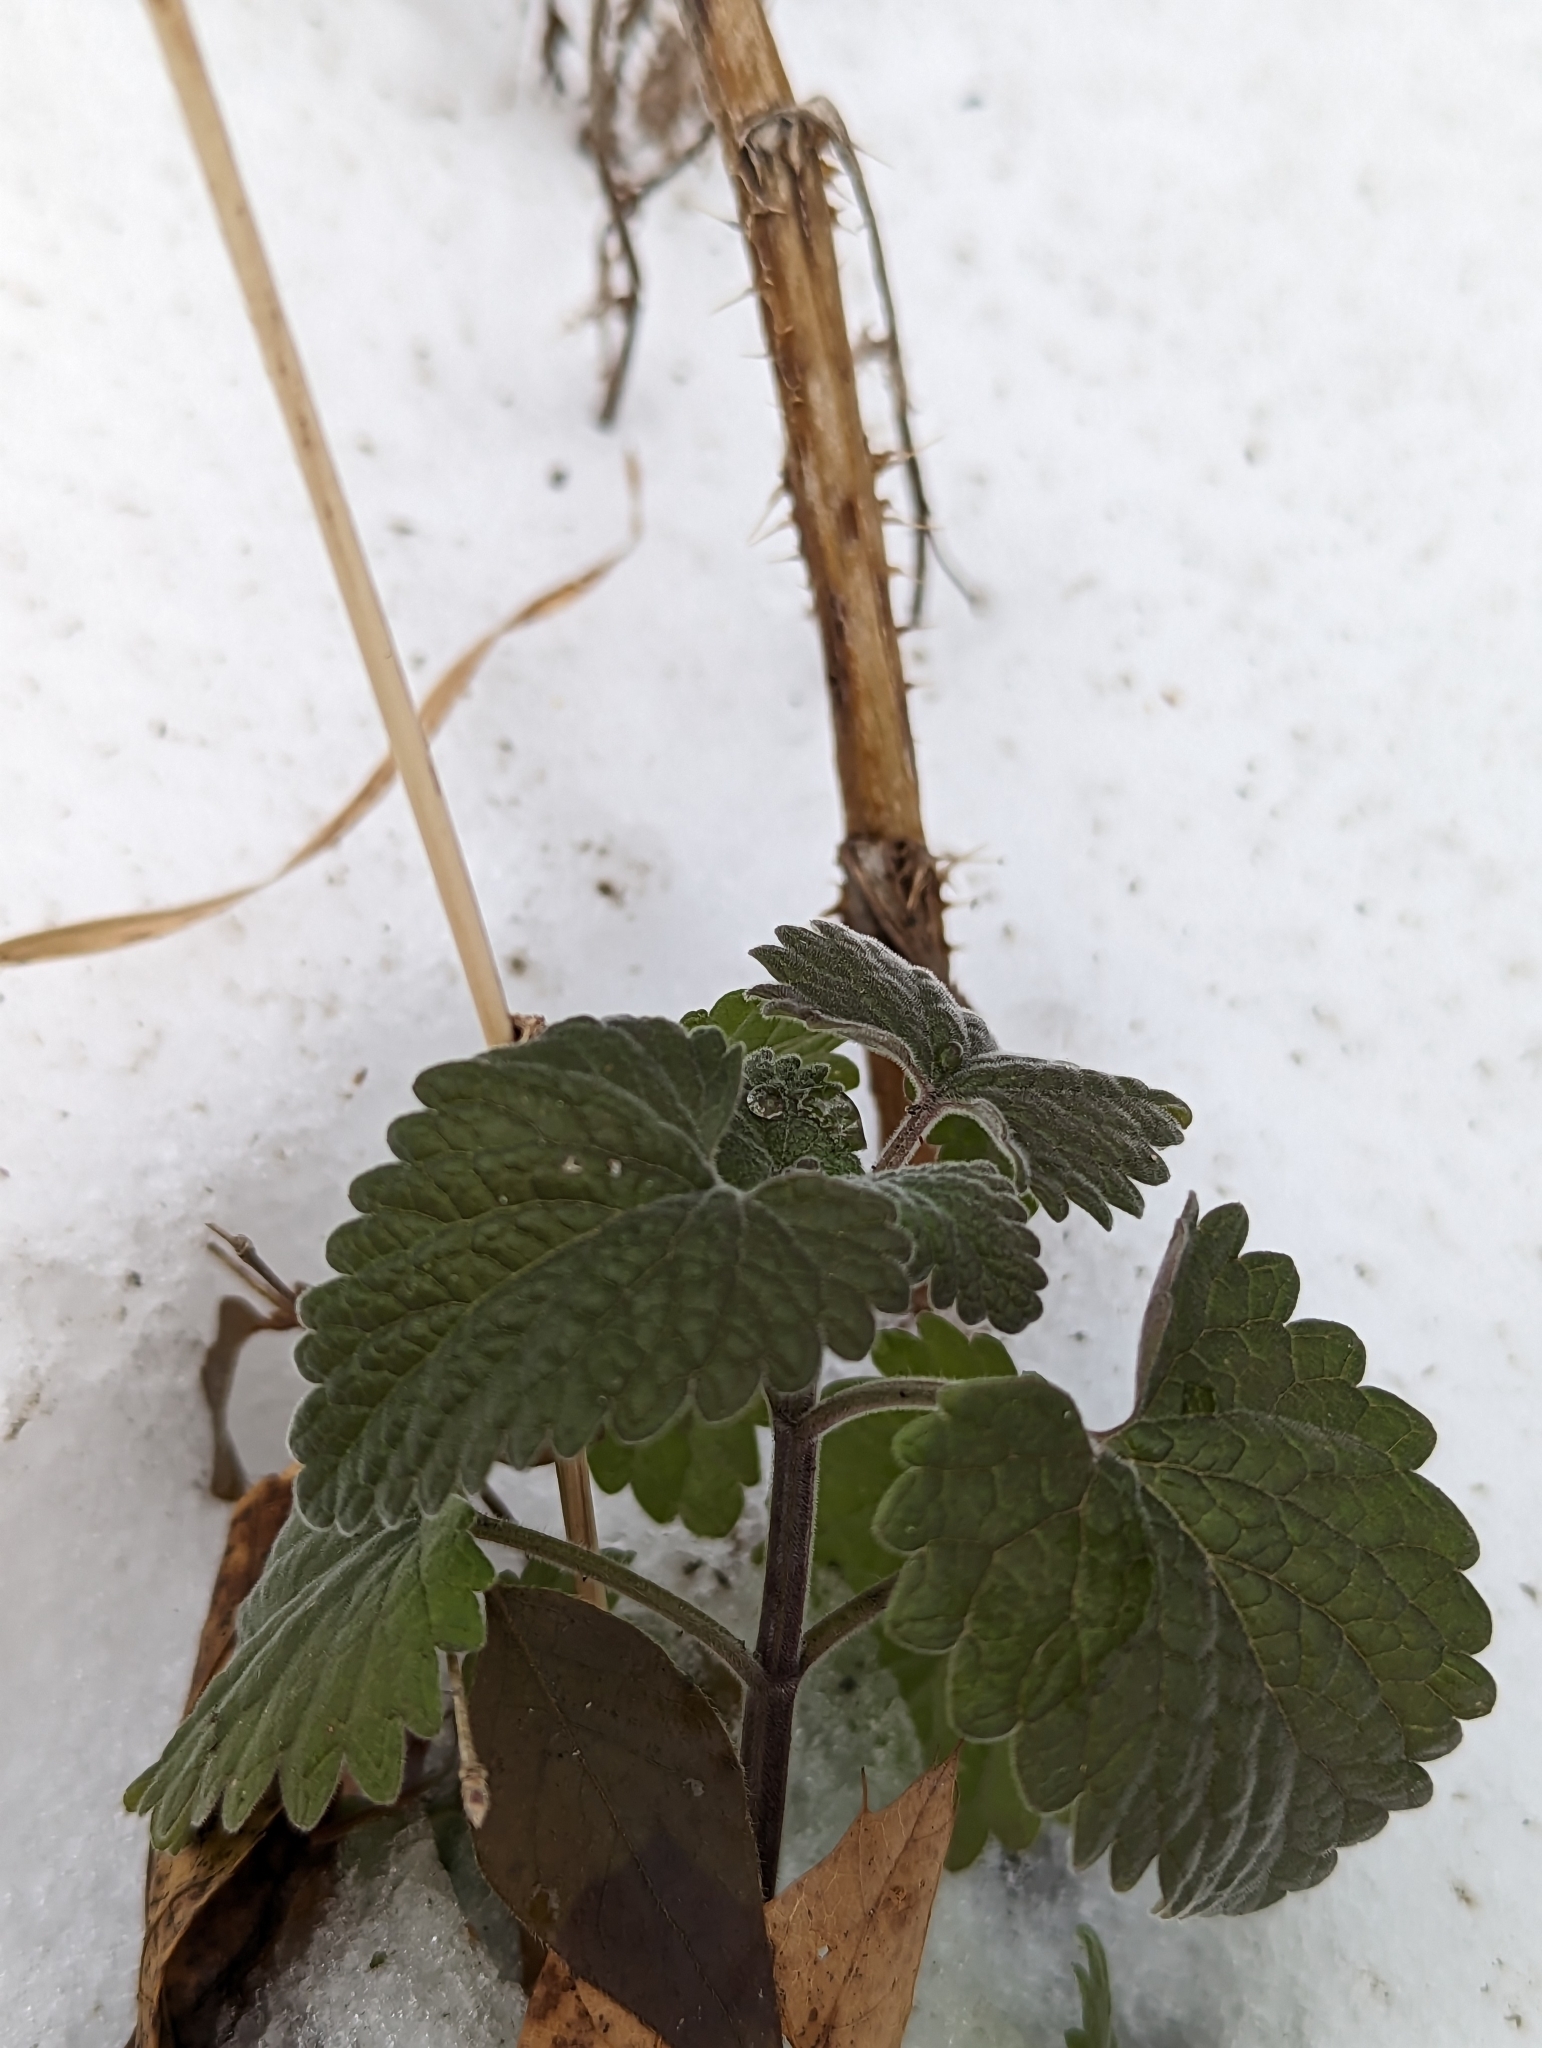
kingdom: Plantae
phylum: Tracheophyta
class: Magnoliopsida
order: Lamiales
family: Lamiaceae
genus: Nepeta
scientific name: Nepeta cataria
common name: Catnip
